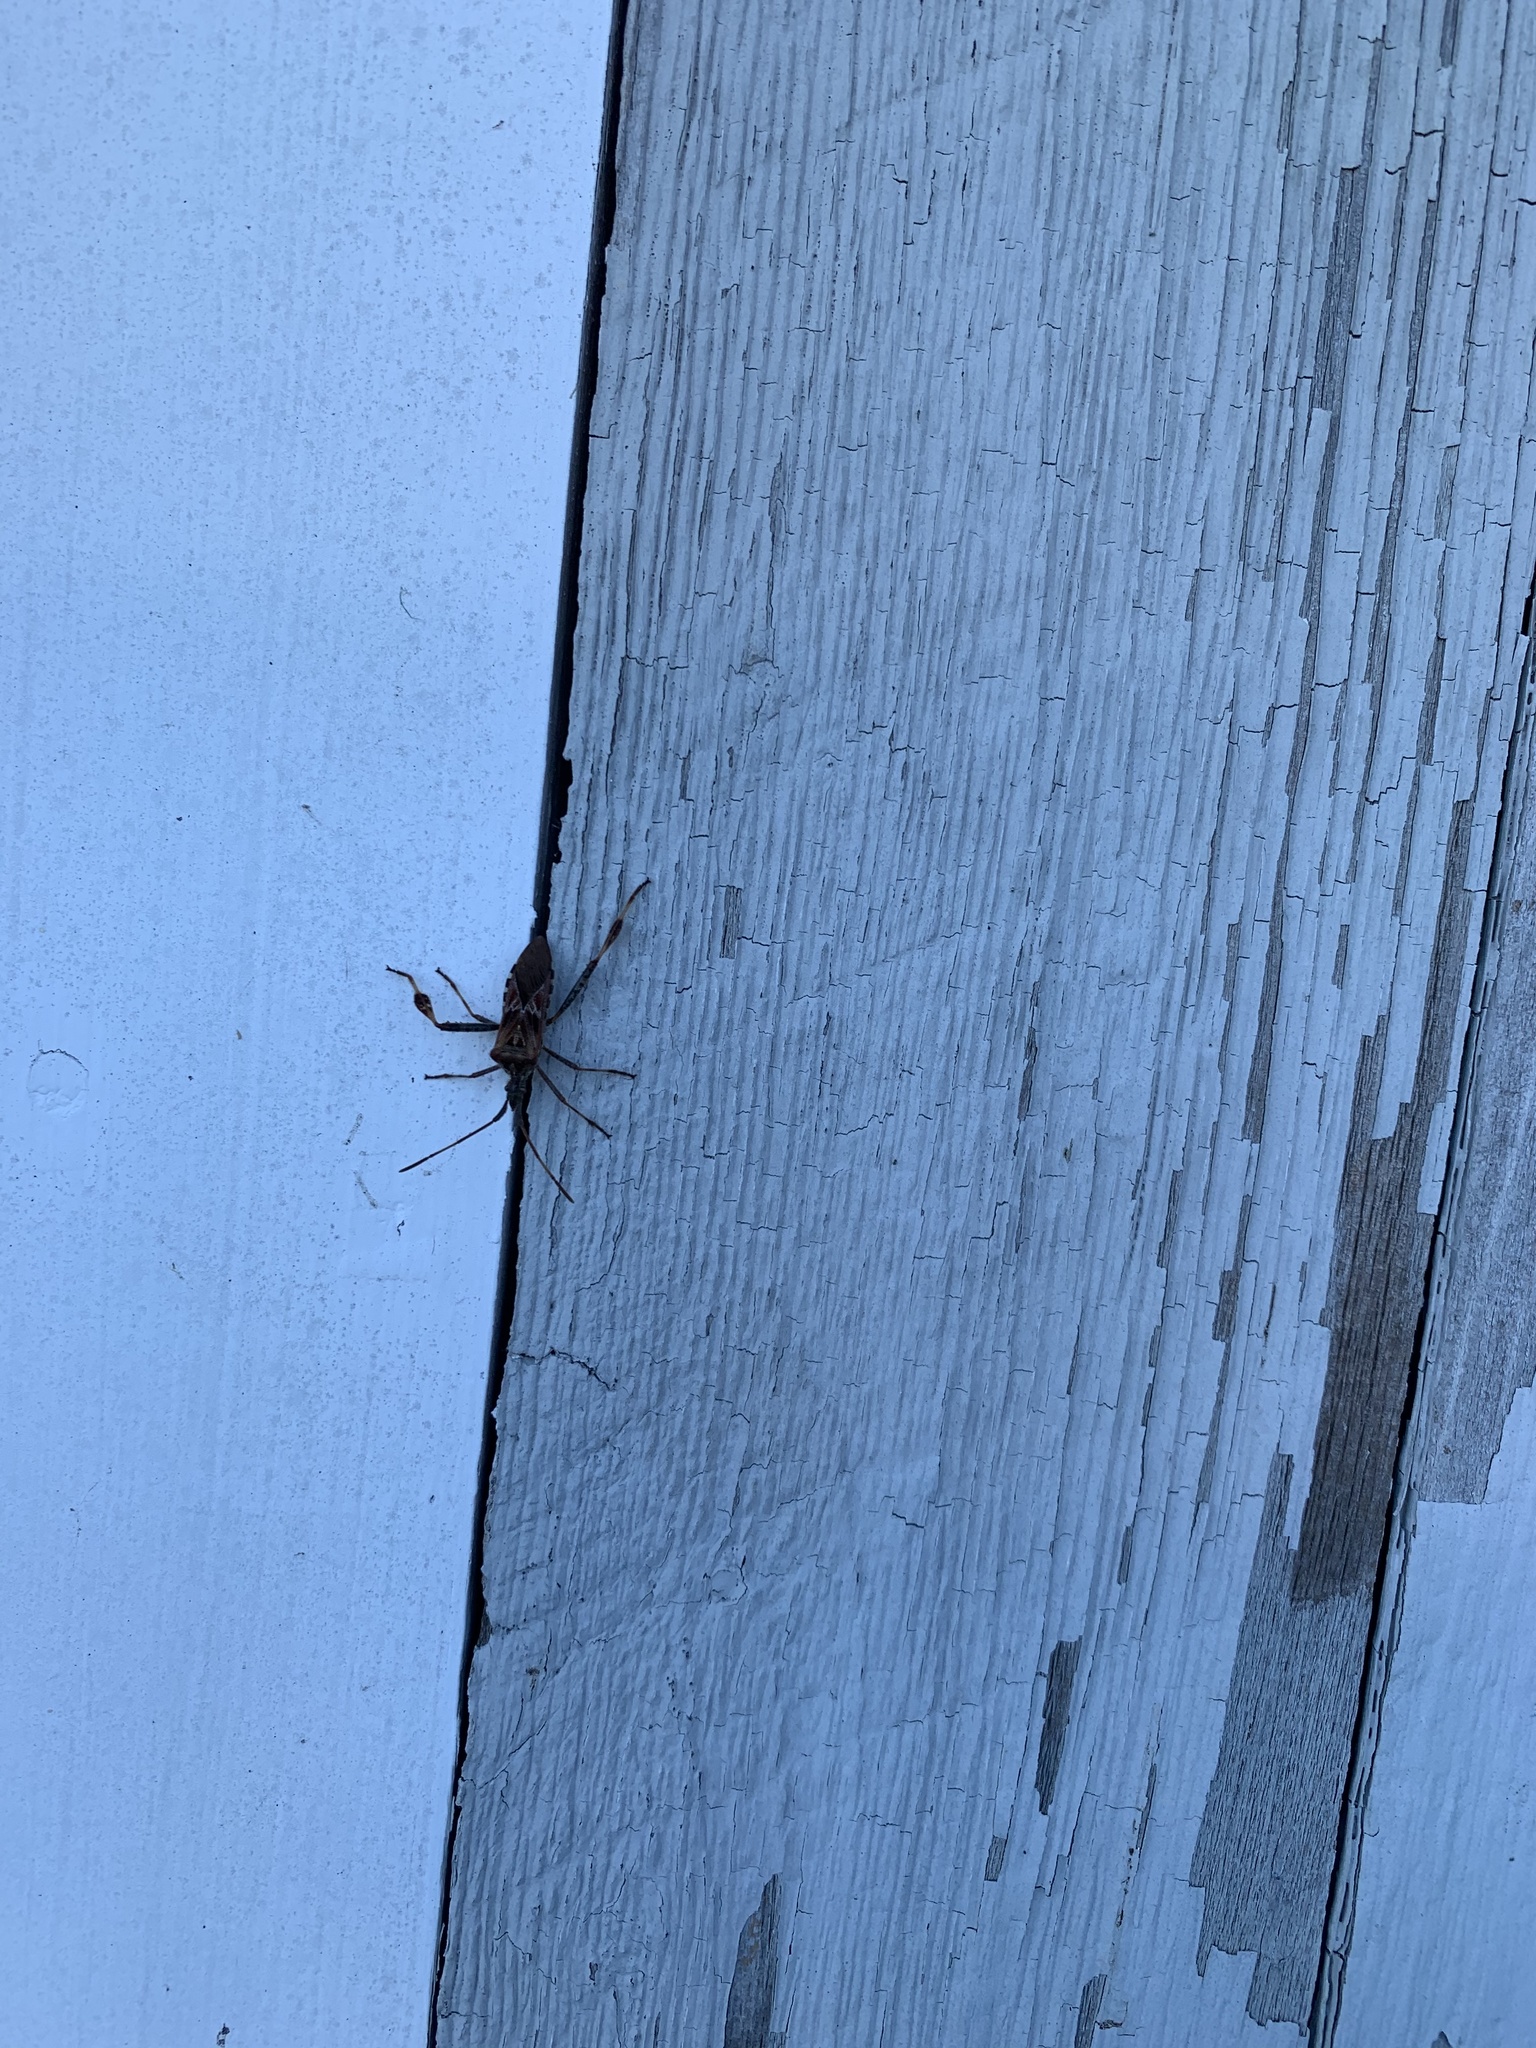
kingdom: Animalia
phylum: Arthropoda
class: Insecta
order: Hemiptera
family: Coreidae
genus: Leptoglossus
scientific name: Leptoglossus occidentalis
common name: Western conifer-seed bug
